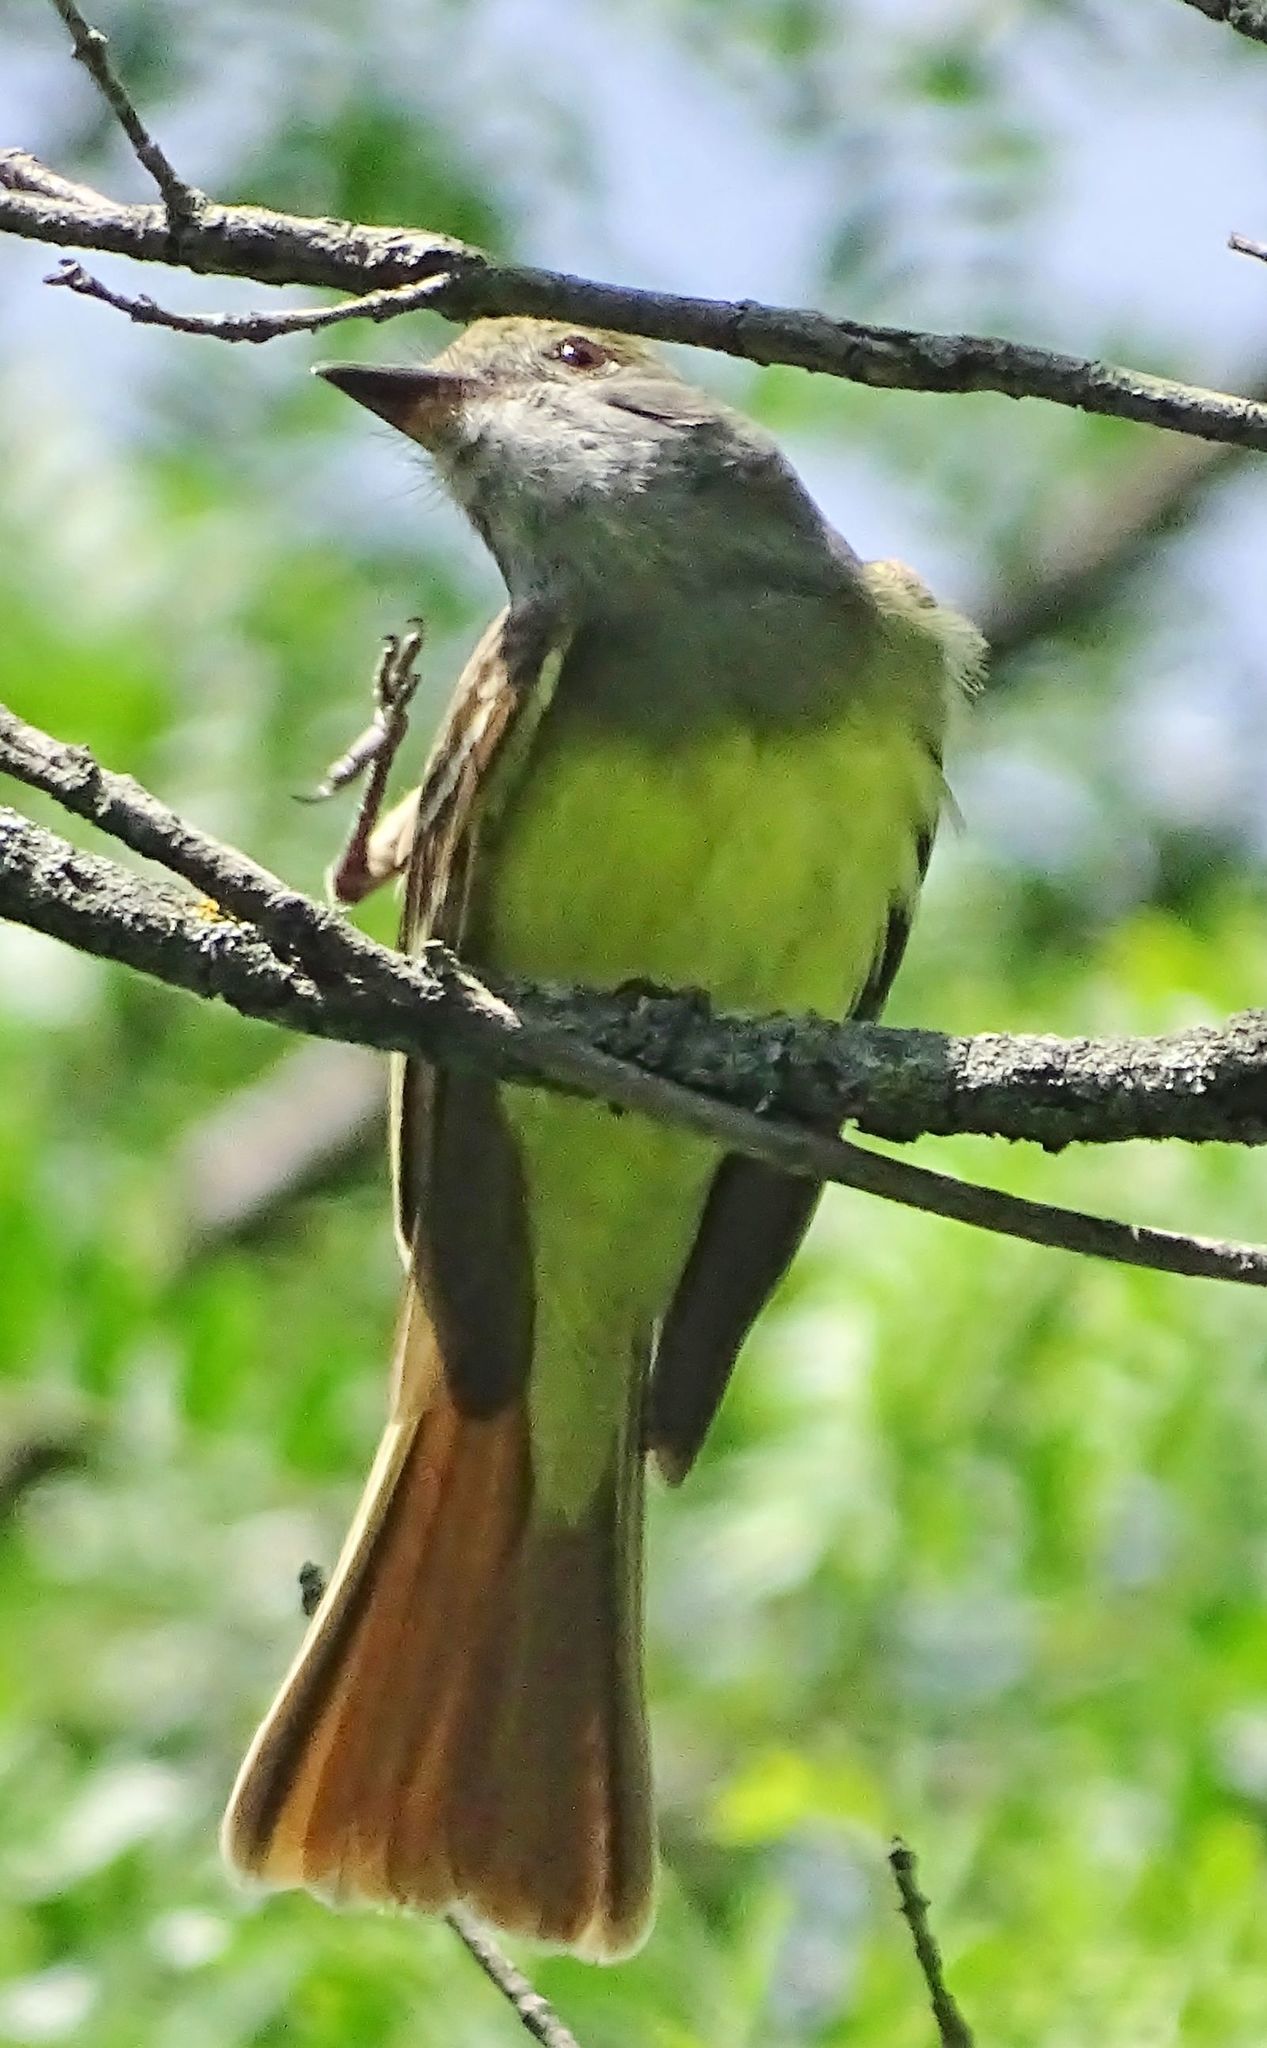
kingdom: Animalia
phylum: Chordata
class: Aves
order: Passeriformes
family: Tyrannidae
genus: Myiarchus
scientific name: Myiarchus crinitus
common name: Great crested flycatcher
